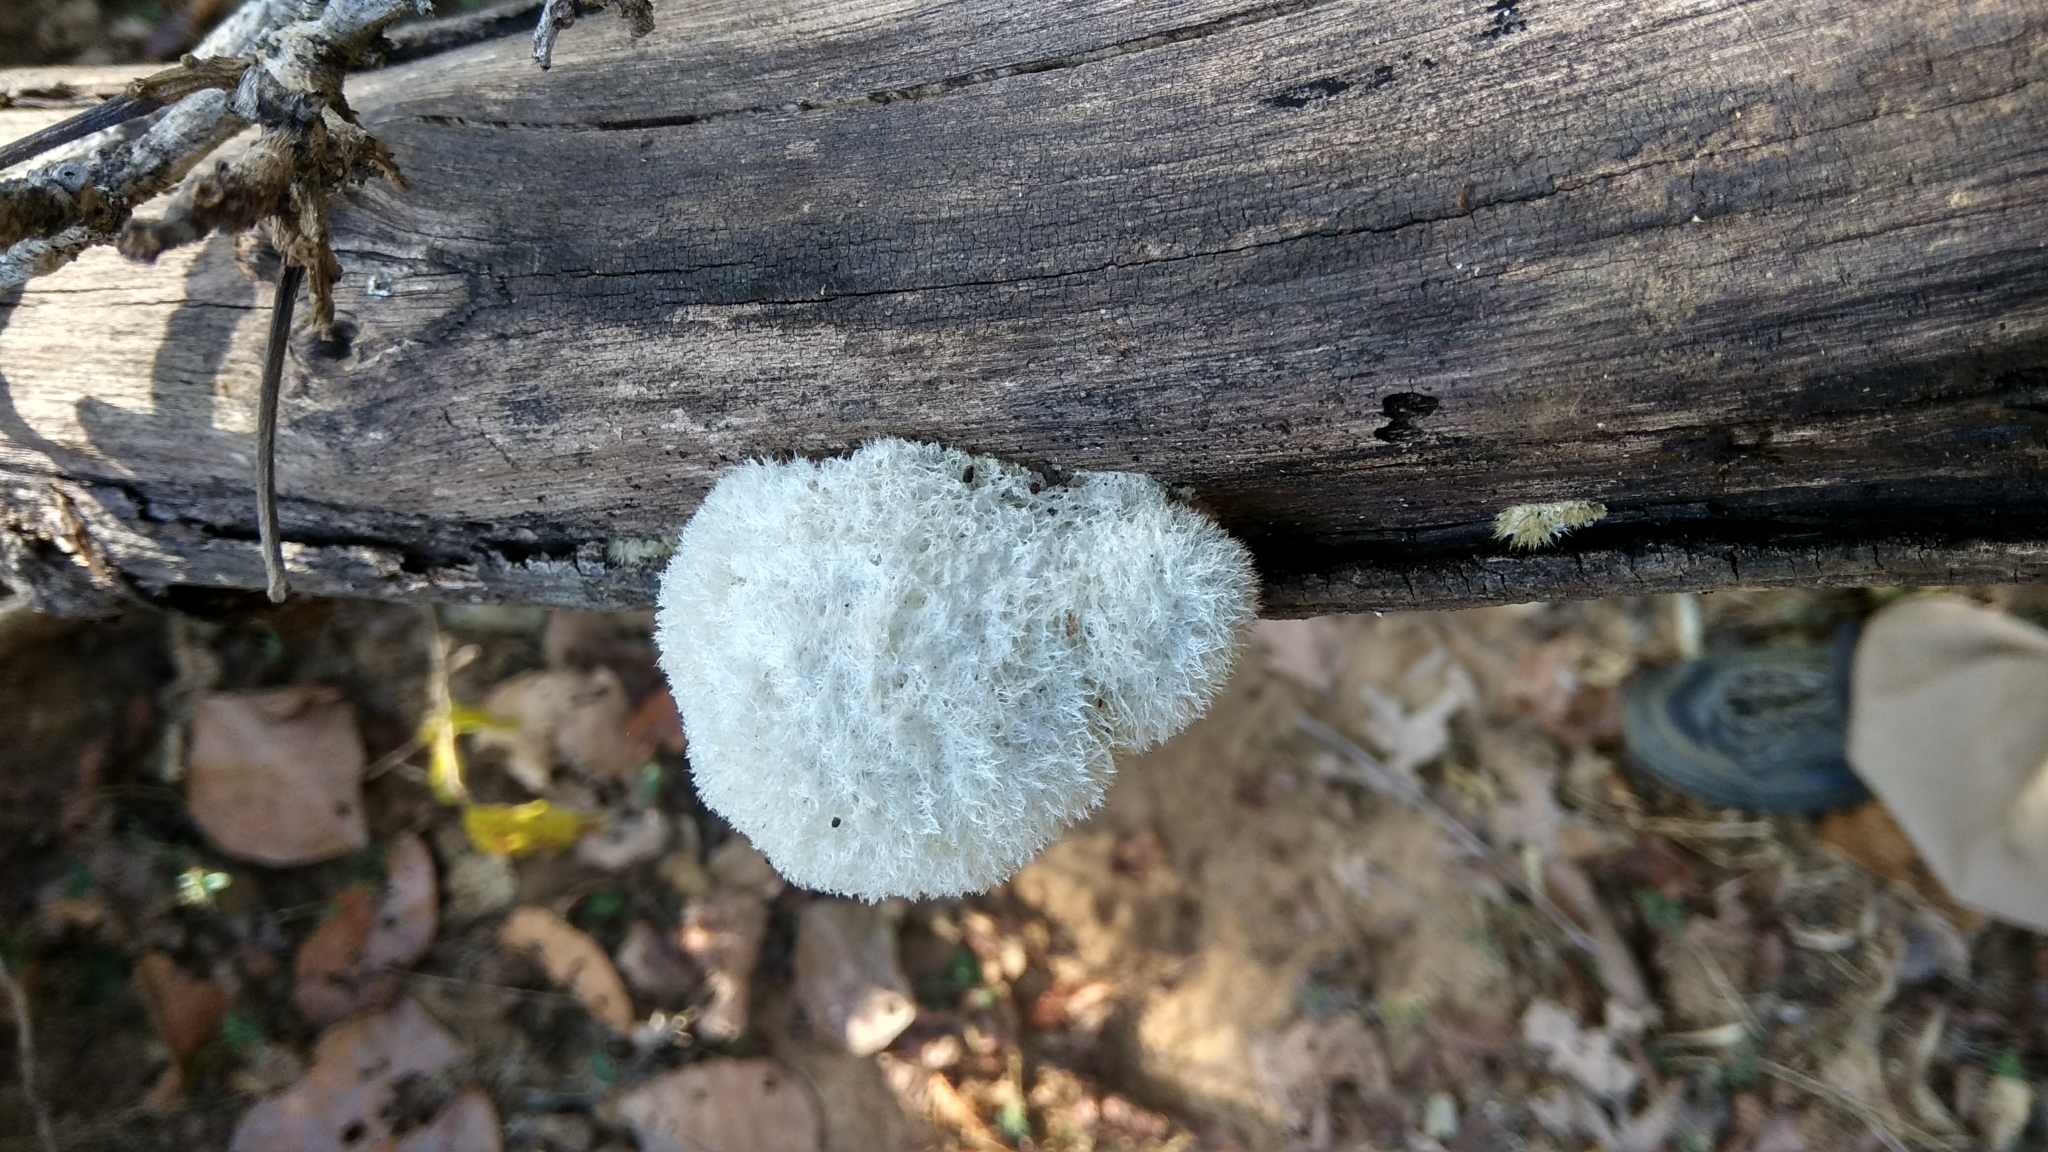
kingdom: Fungi
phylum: Basidiomycota
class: Agaricomycetes
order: Agaricales
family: Schizophyllaceae
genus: Schizophyllum
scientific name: Schizophyllum commune
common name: Common porecrust
